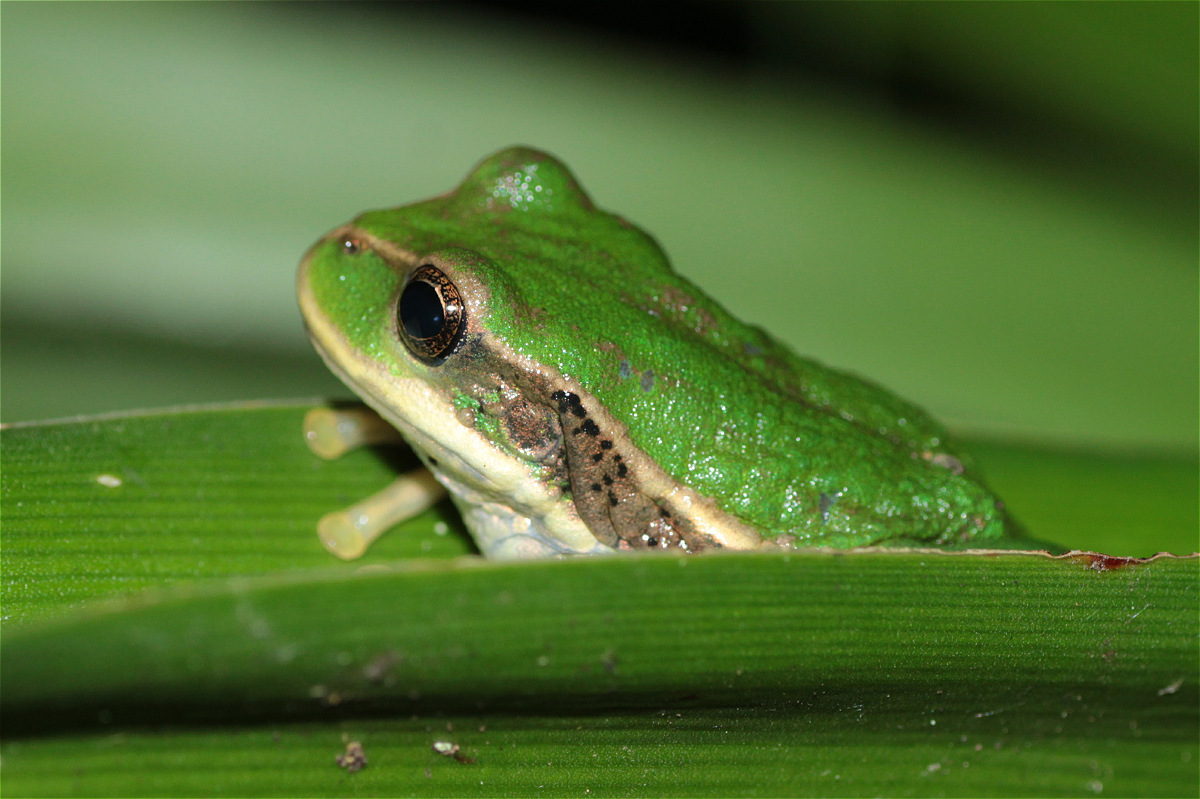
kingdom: Animalia
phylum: Chordata
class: Amphibia
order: Anura
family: Hemiphractidae
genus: Gastrotheca
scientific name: Gastrotheca cuencana
